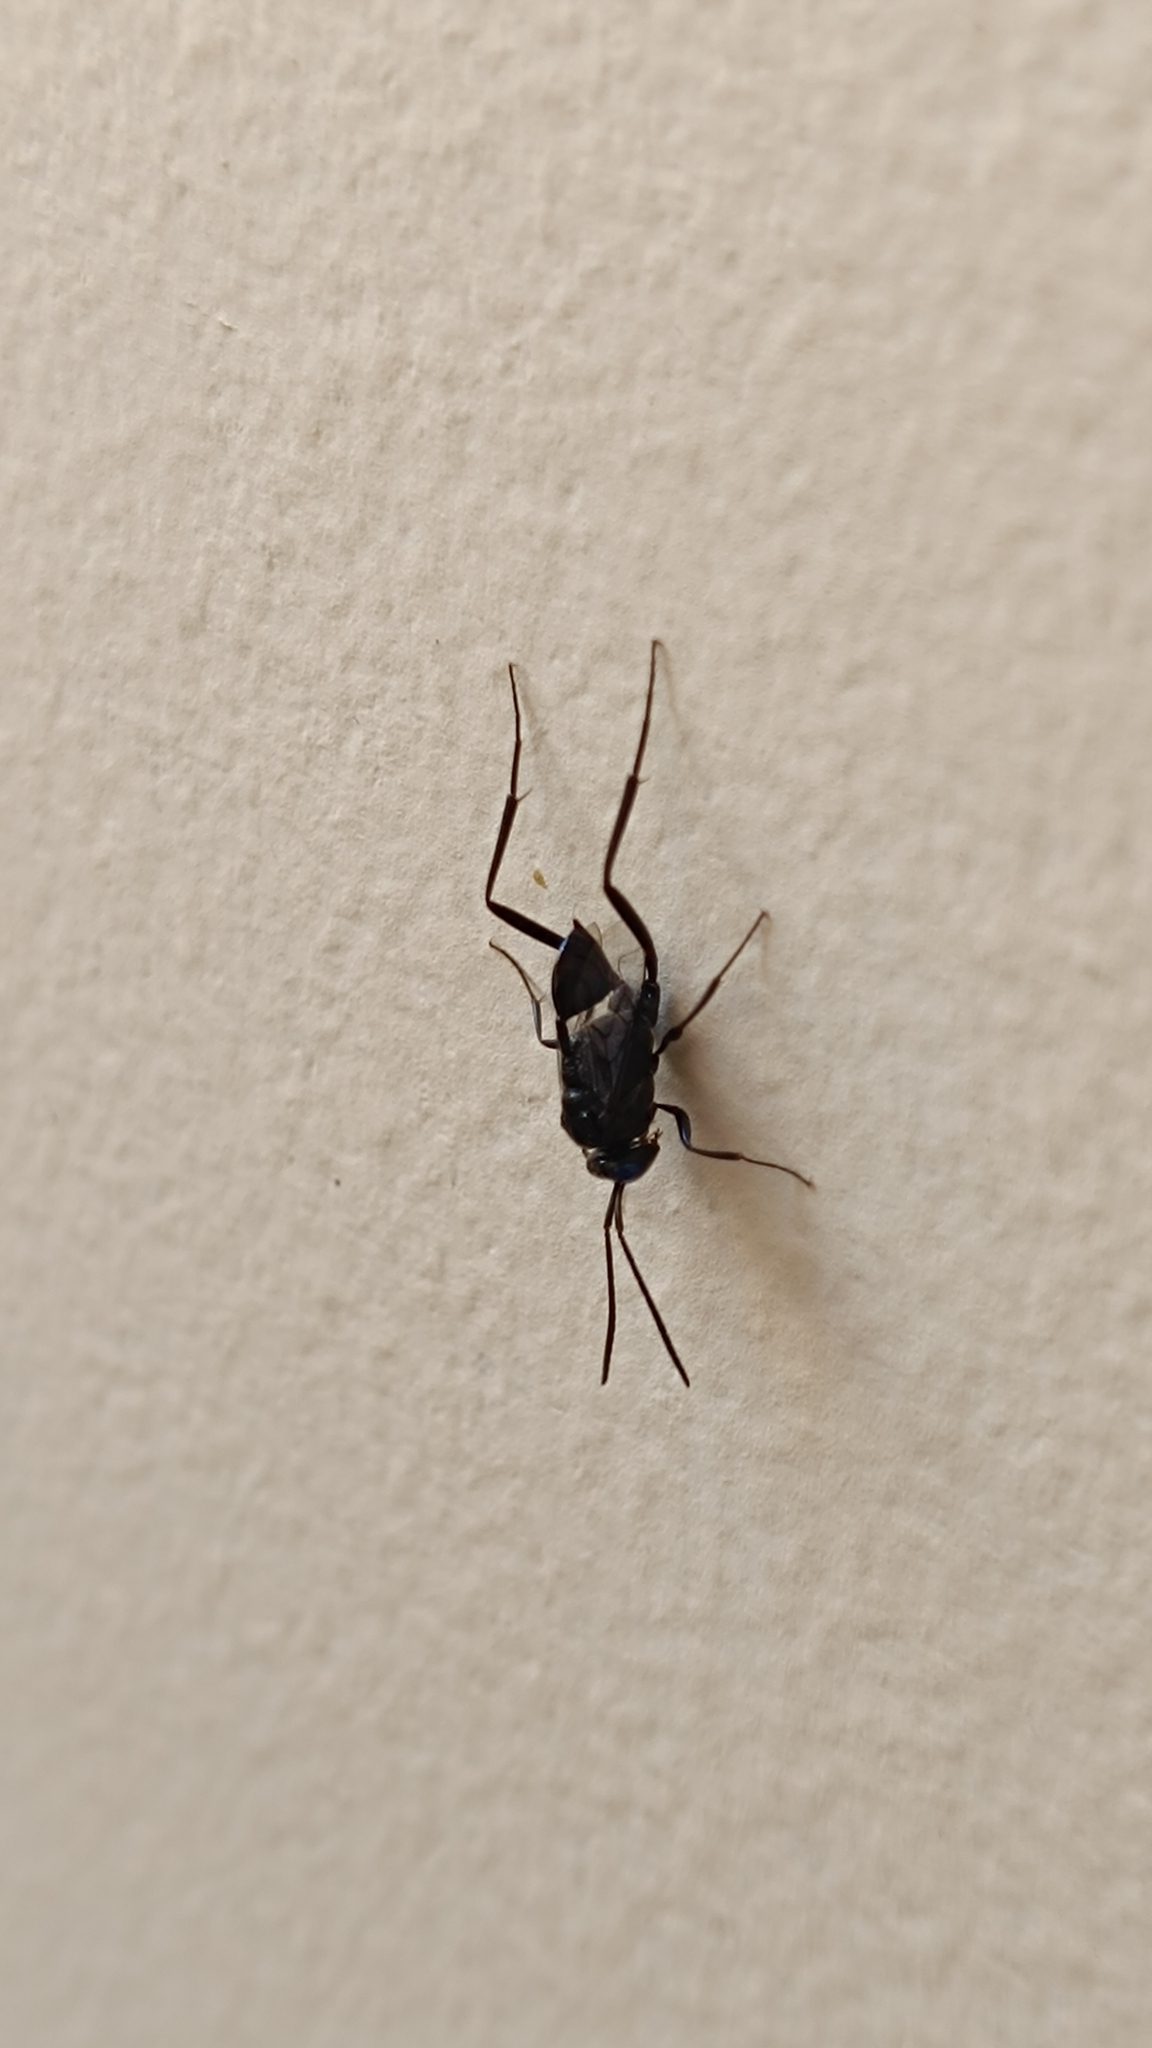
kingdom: Animalia
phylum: Arthropoda
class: Insecta
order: Hymenoptera
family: Evaniidae
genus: Evania
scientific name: Evania appendigaster
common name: Ensign wasp
